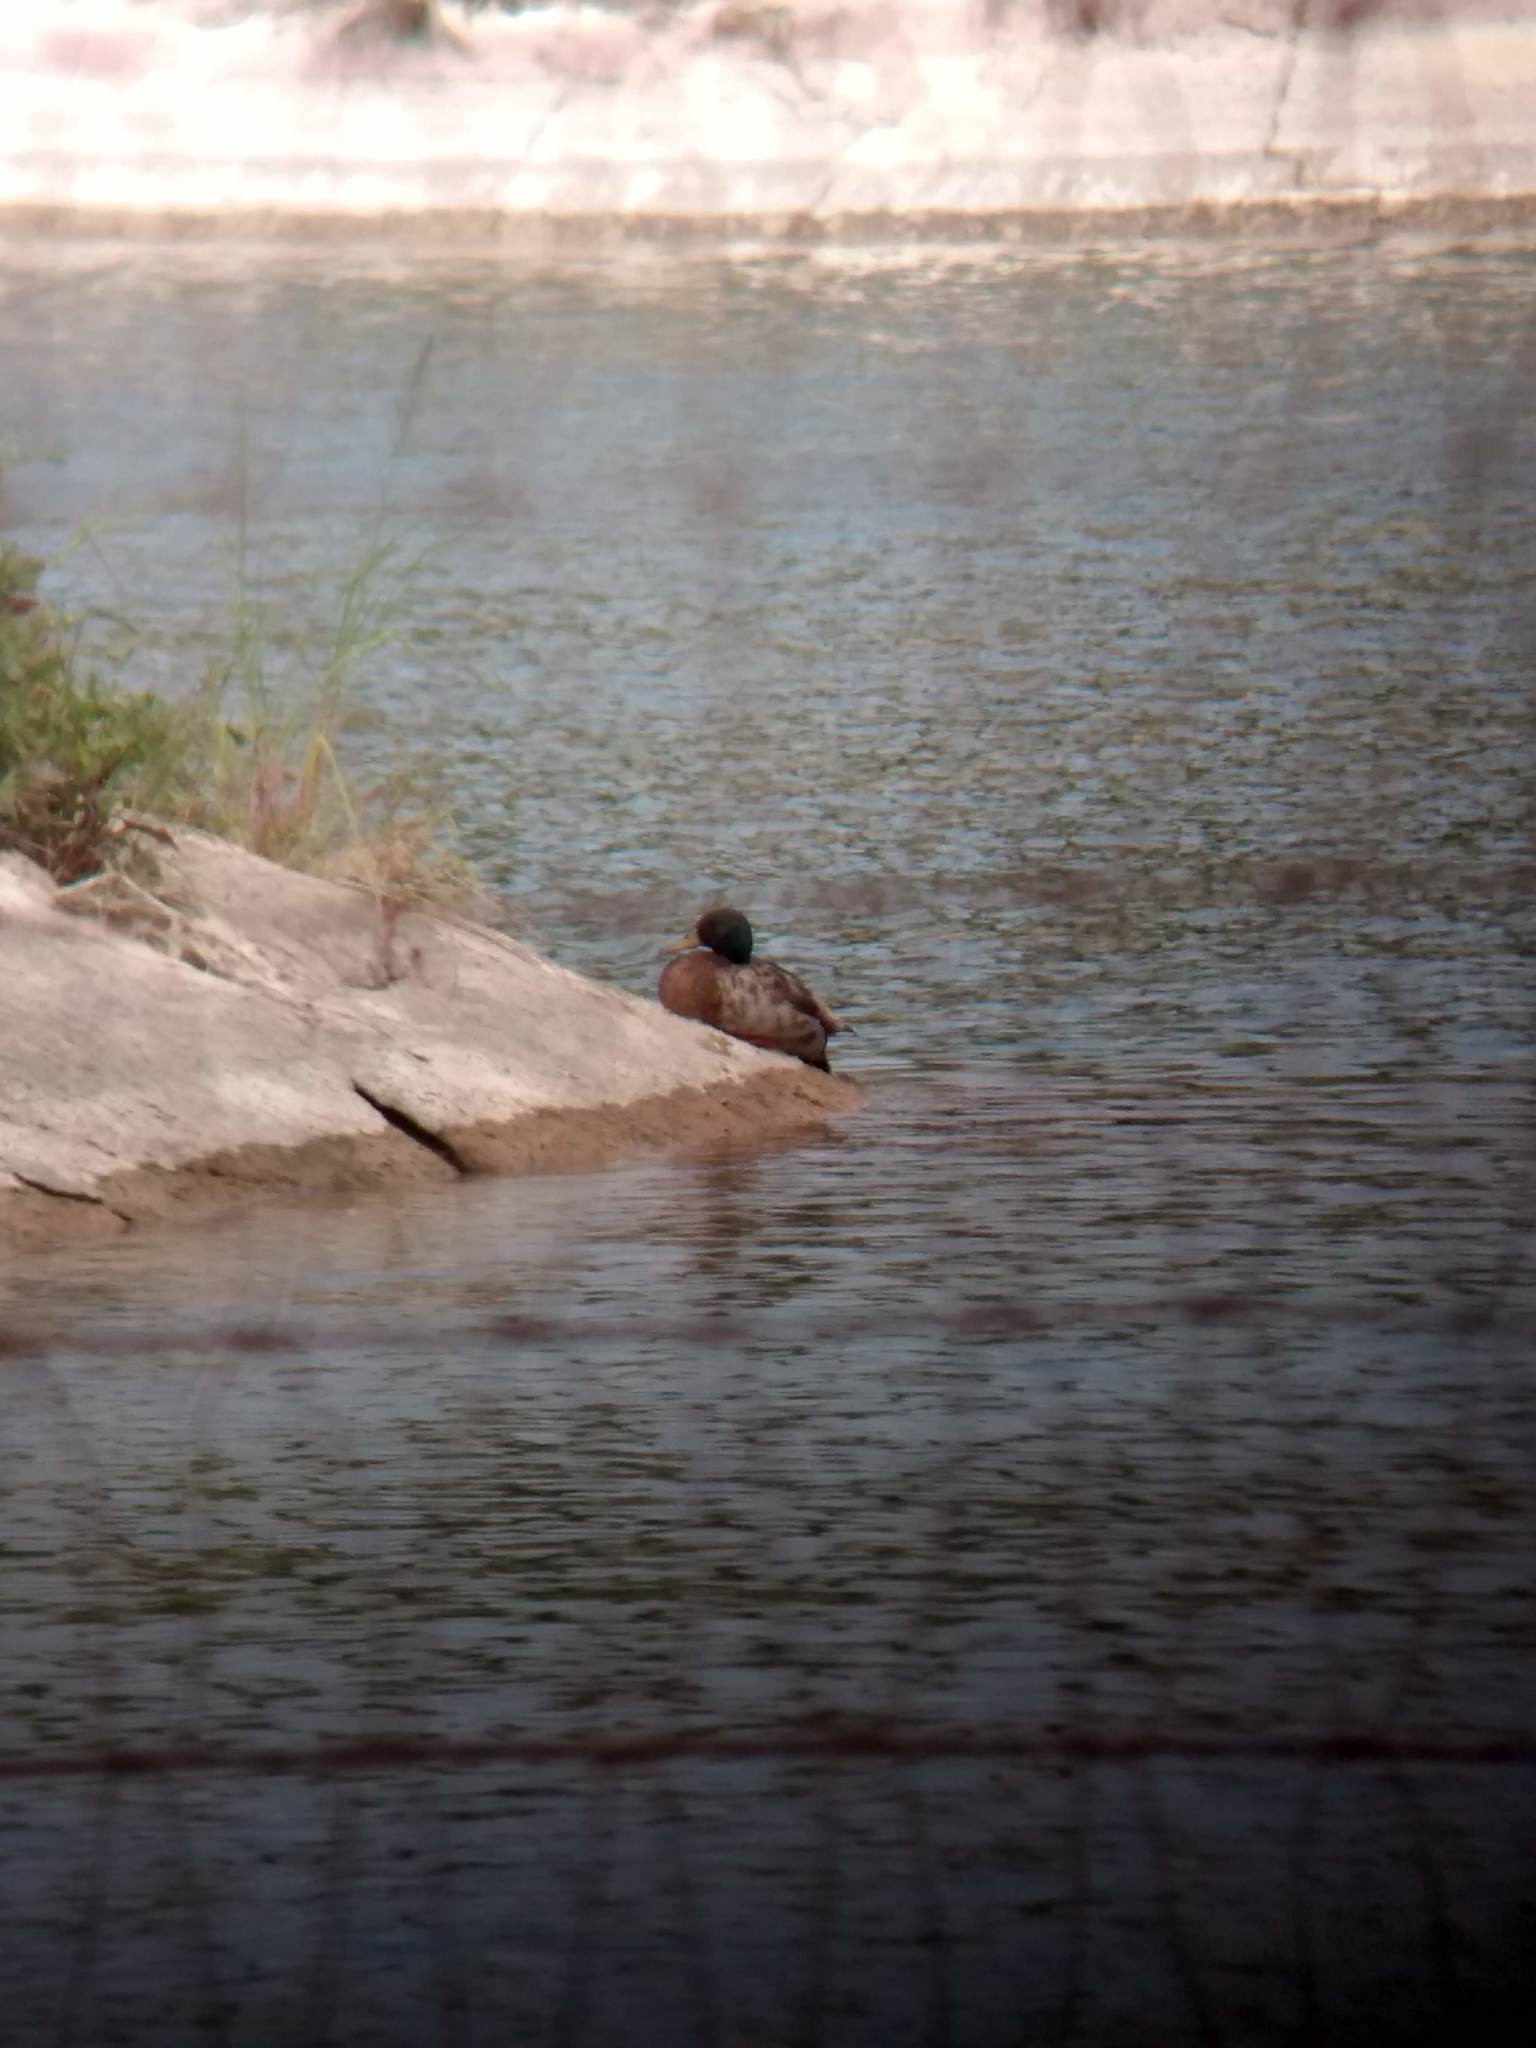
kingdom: Animalia
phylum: Chordata
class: Aves
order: Anseriformes
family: Anatidae
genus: Anas
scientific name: Anas platyrhynchos
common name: Mallard
